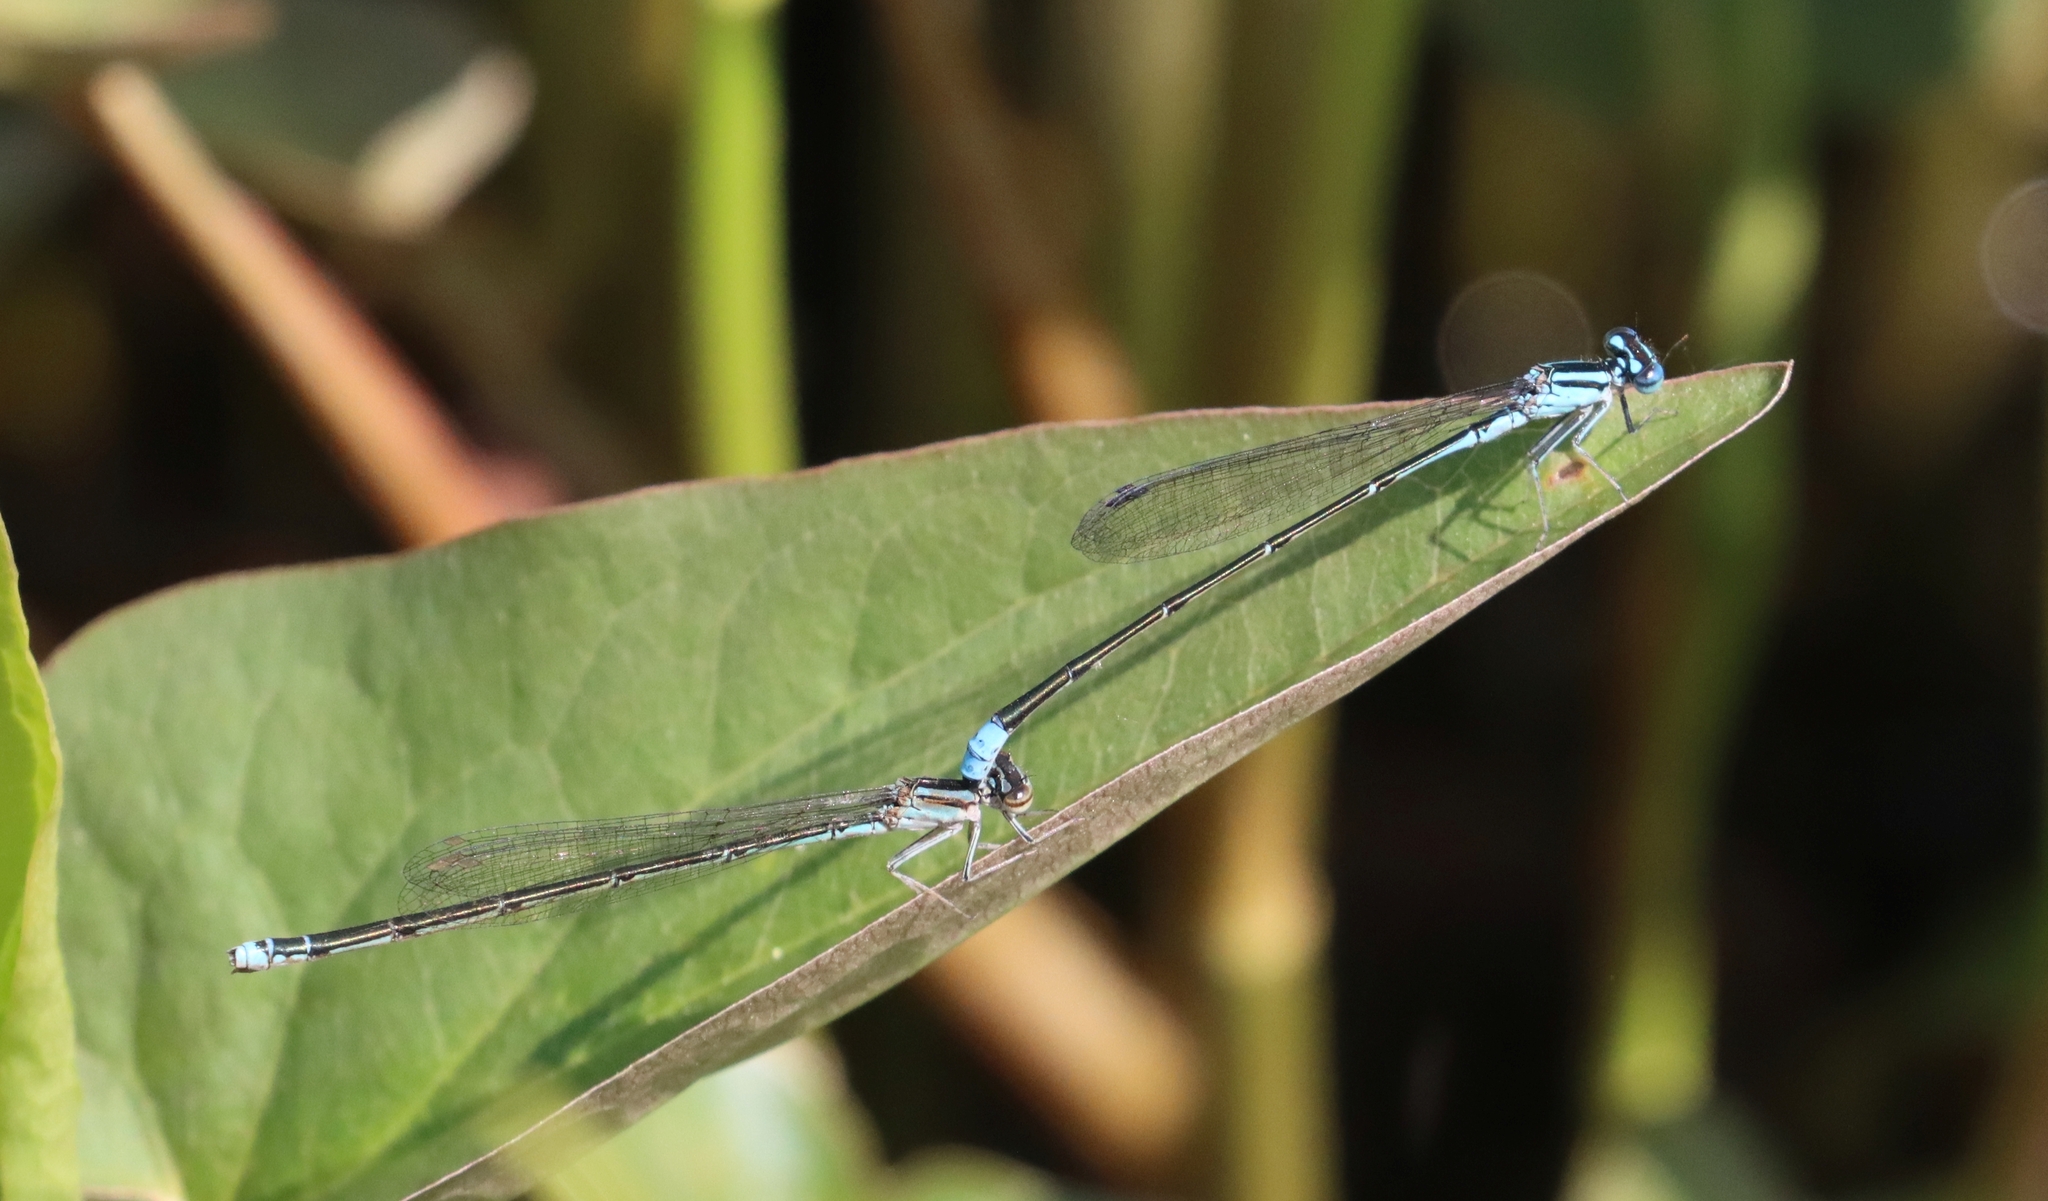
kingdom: Animalia
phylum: Arthropoda
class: Insecta
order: Odonata
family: Coenagrionidae
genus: Enallagma
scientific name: Enallagma divagans
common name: Turquoise bluet
